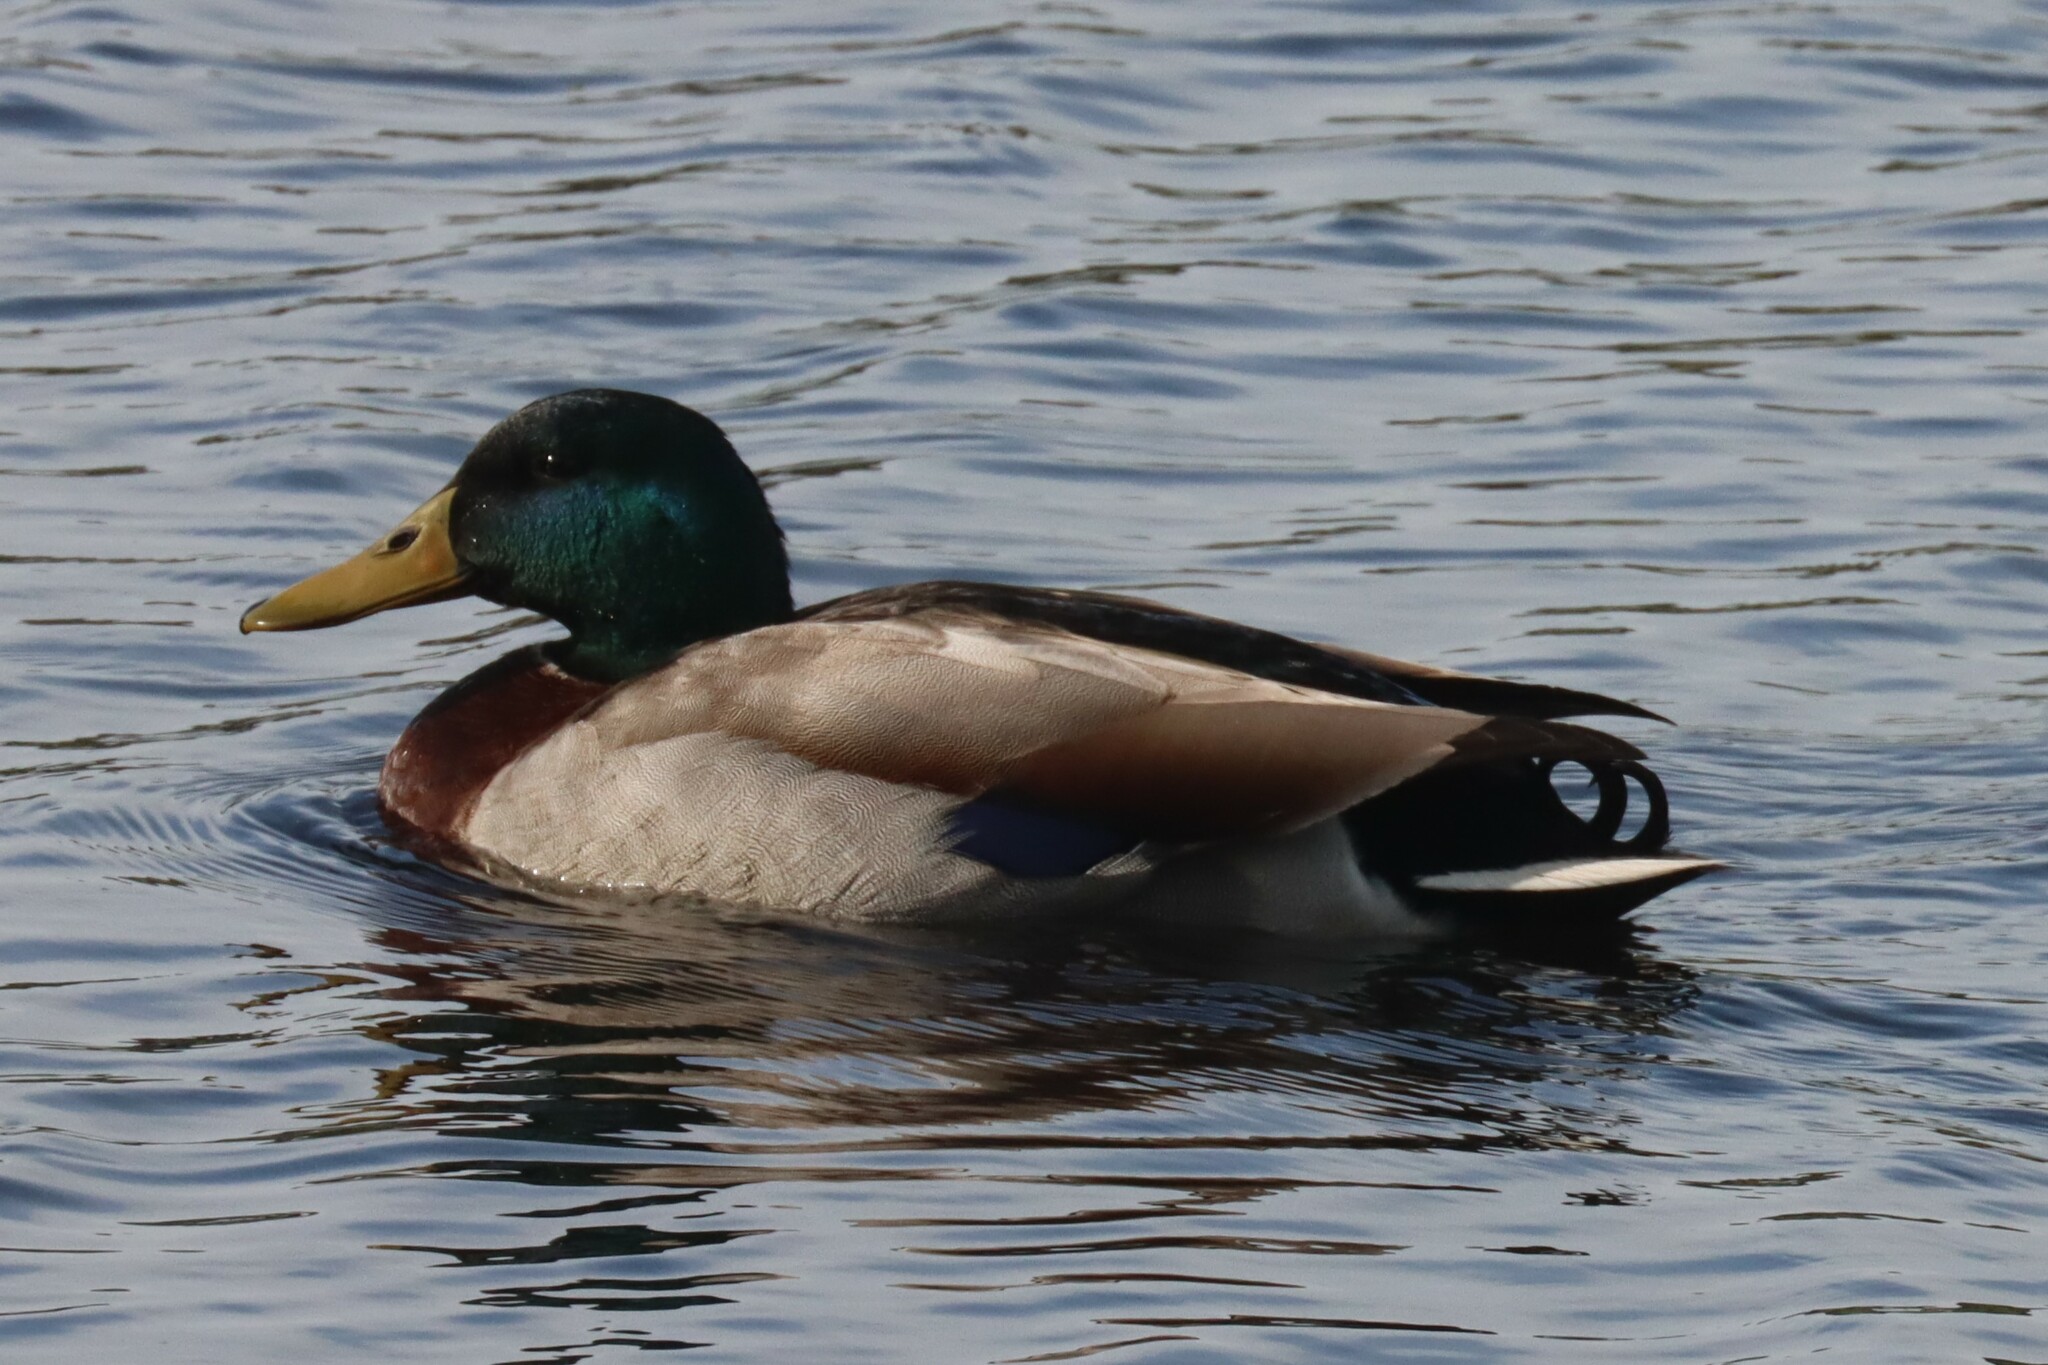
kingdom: Animalia
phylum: Chordata
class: Aves
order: Anseriformes
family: Anatidae
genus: Anas
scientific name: Anas platyrhynchos
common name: Mallard
